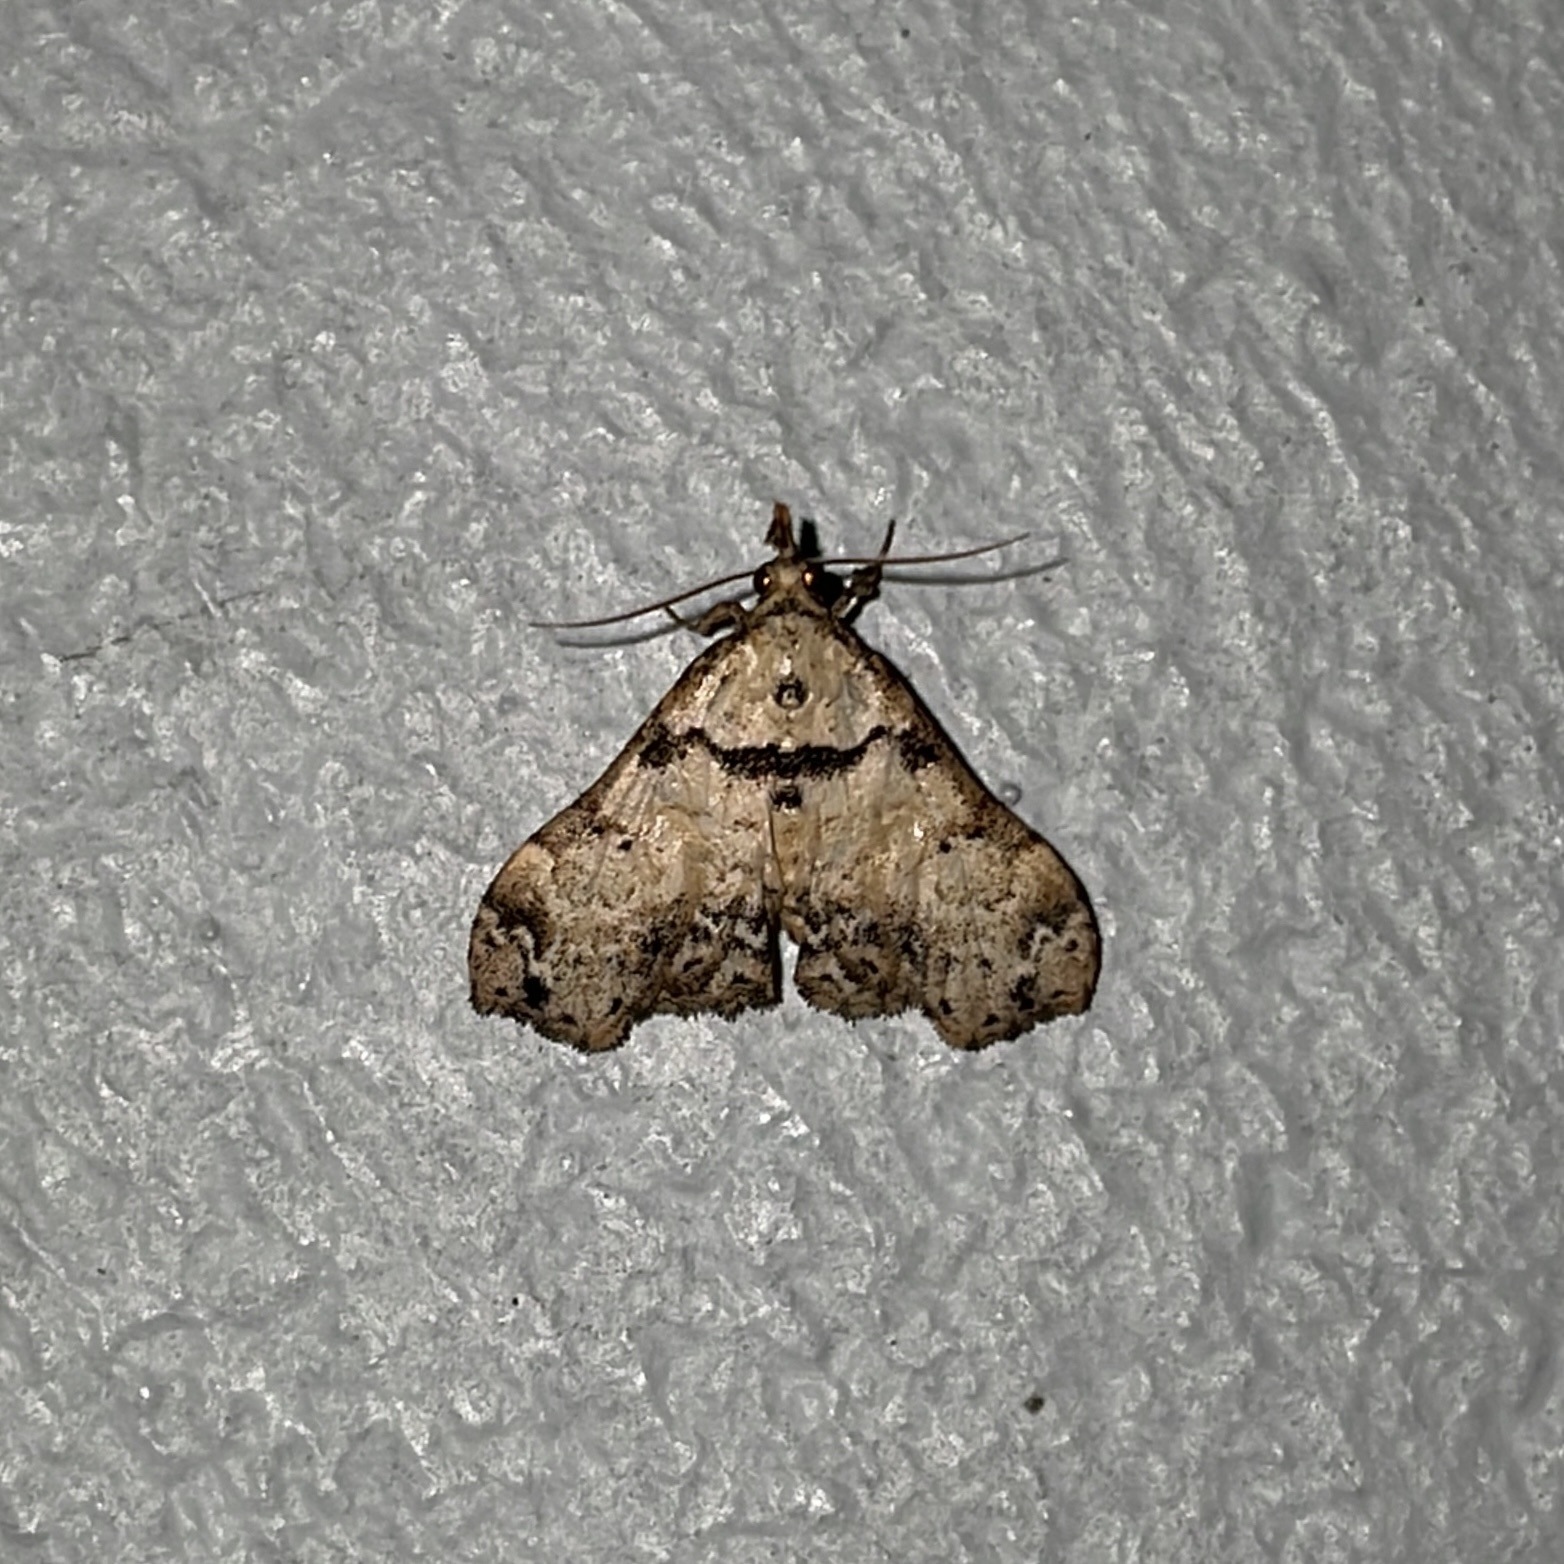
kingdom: Animalia
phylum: Arthropoda
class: Insecta
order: Lepidoptera
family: Erebidae
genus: Lascoria
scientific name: Lascoria nivea
